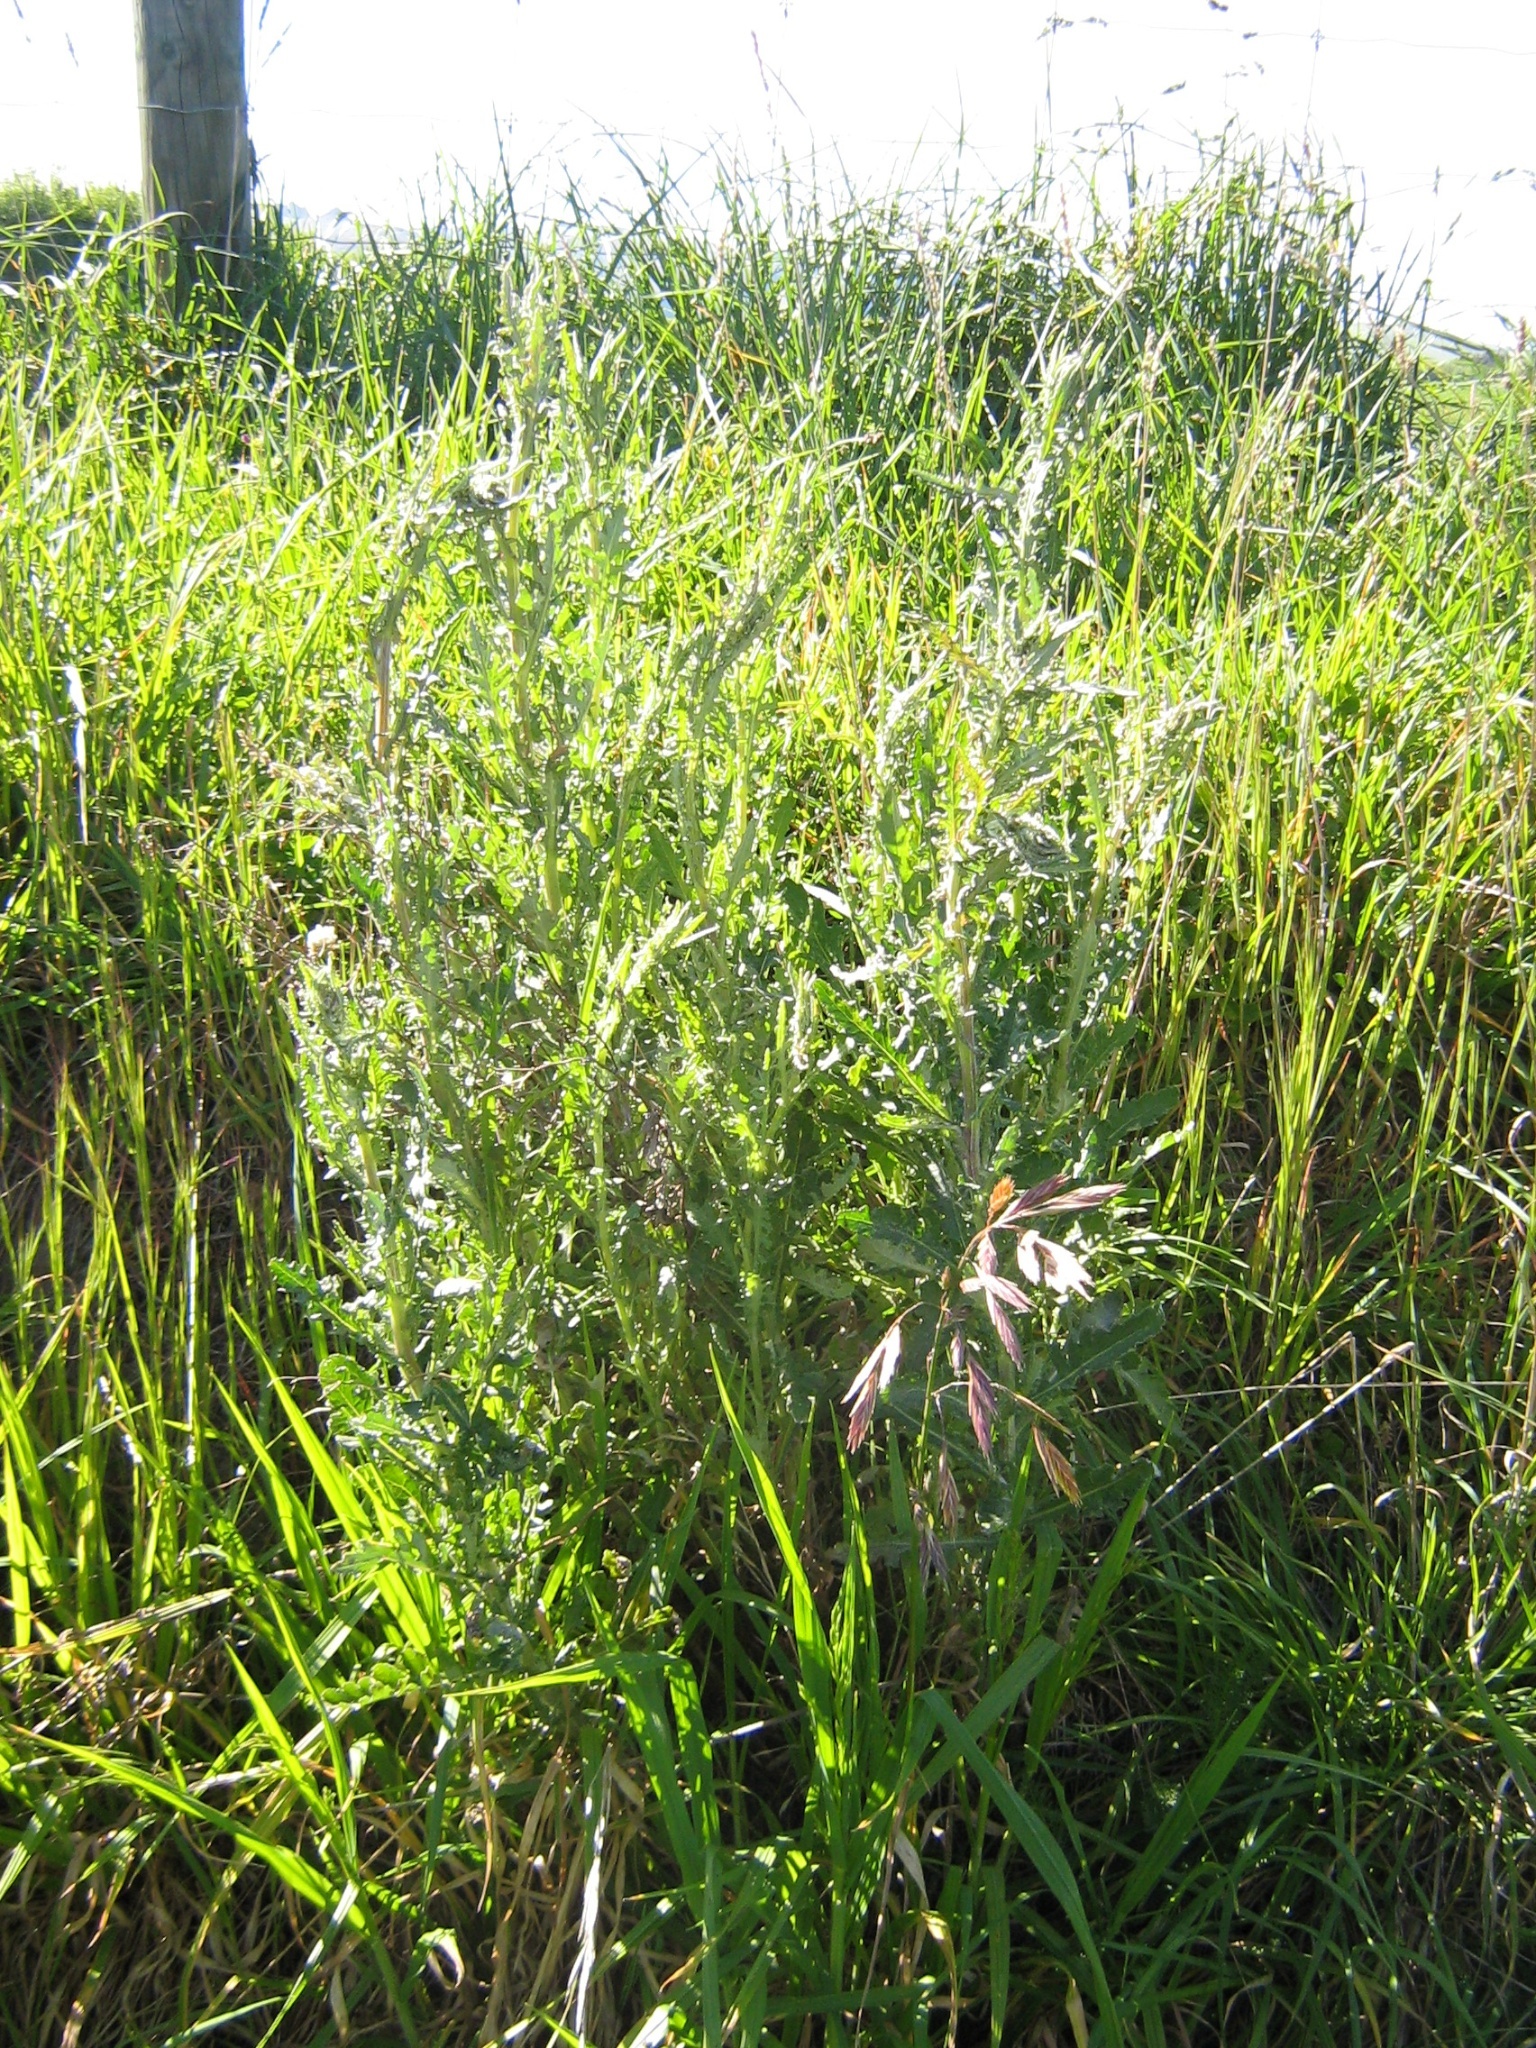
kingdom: Plantae
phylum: Tracheophyta
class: Magnoliopsida
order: Asterales
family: Asteraceae
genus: Senecio
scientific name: Senecio glomeratus
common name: Cutleaf burnweed
